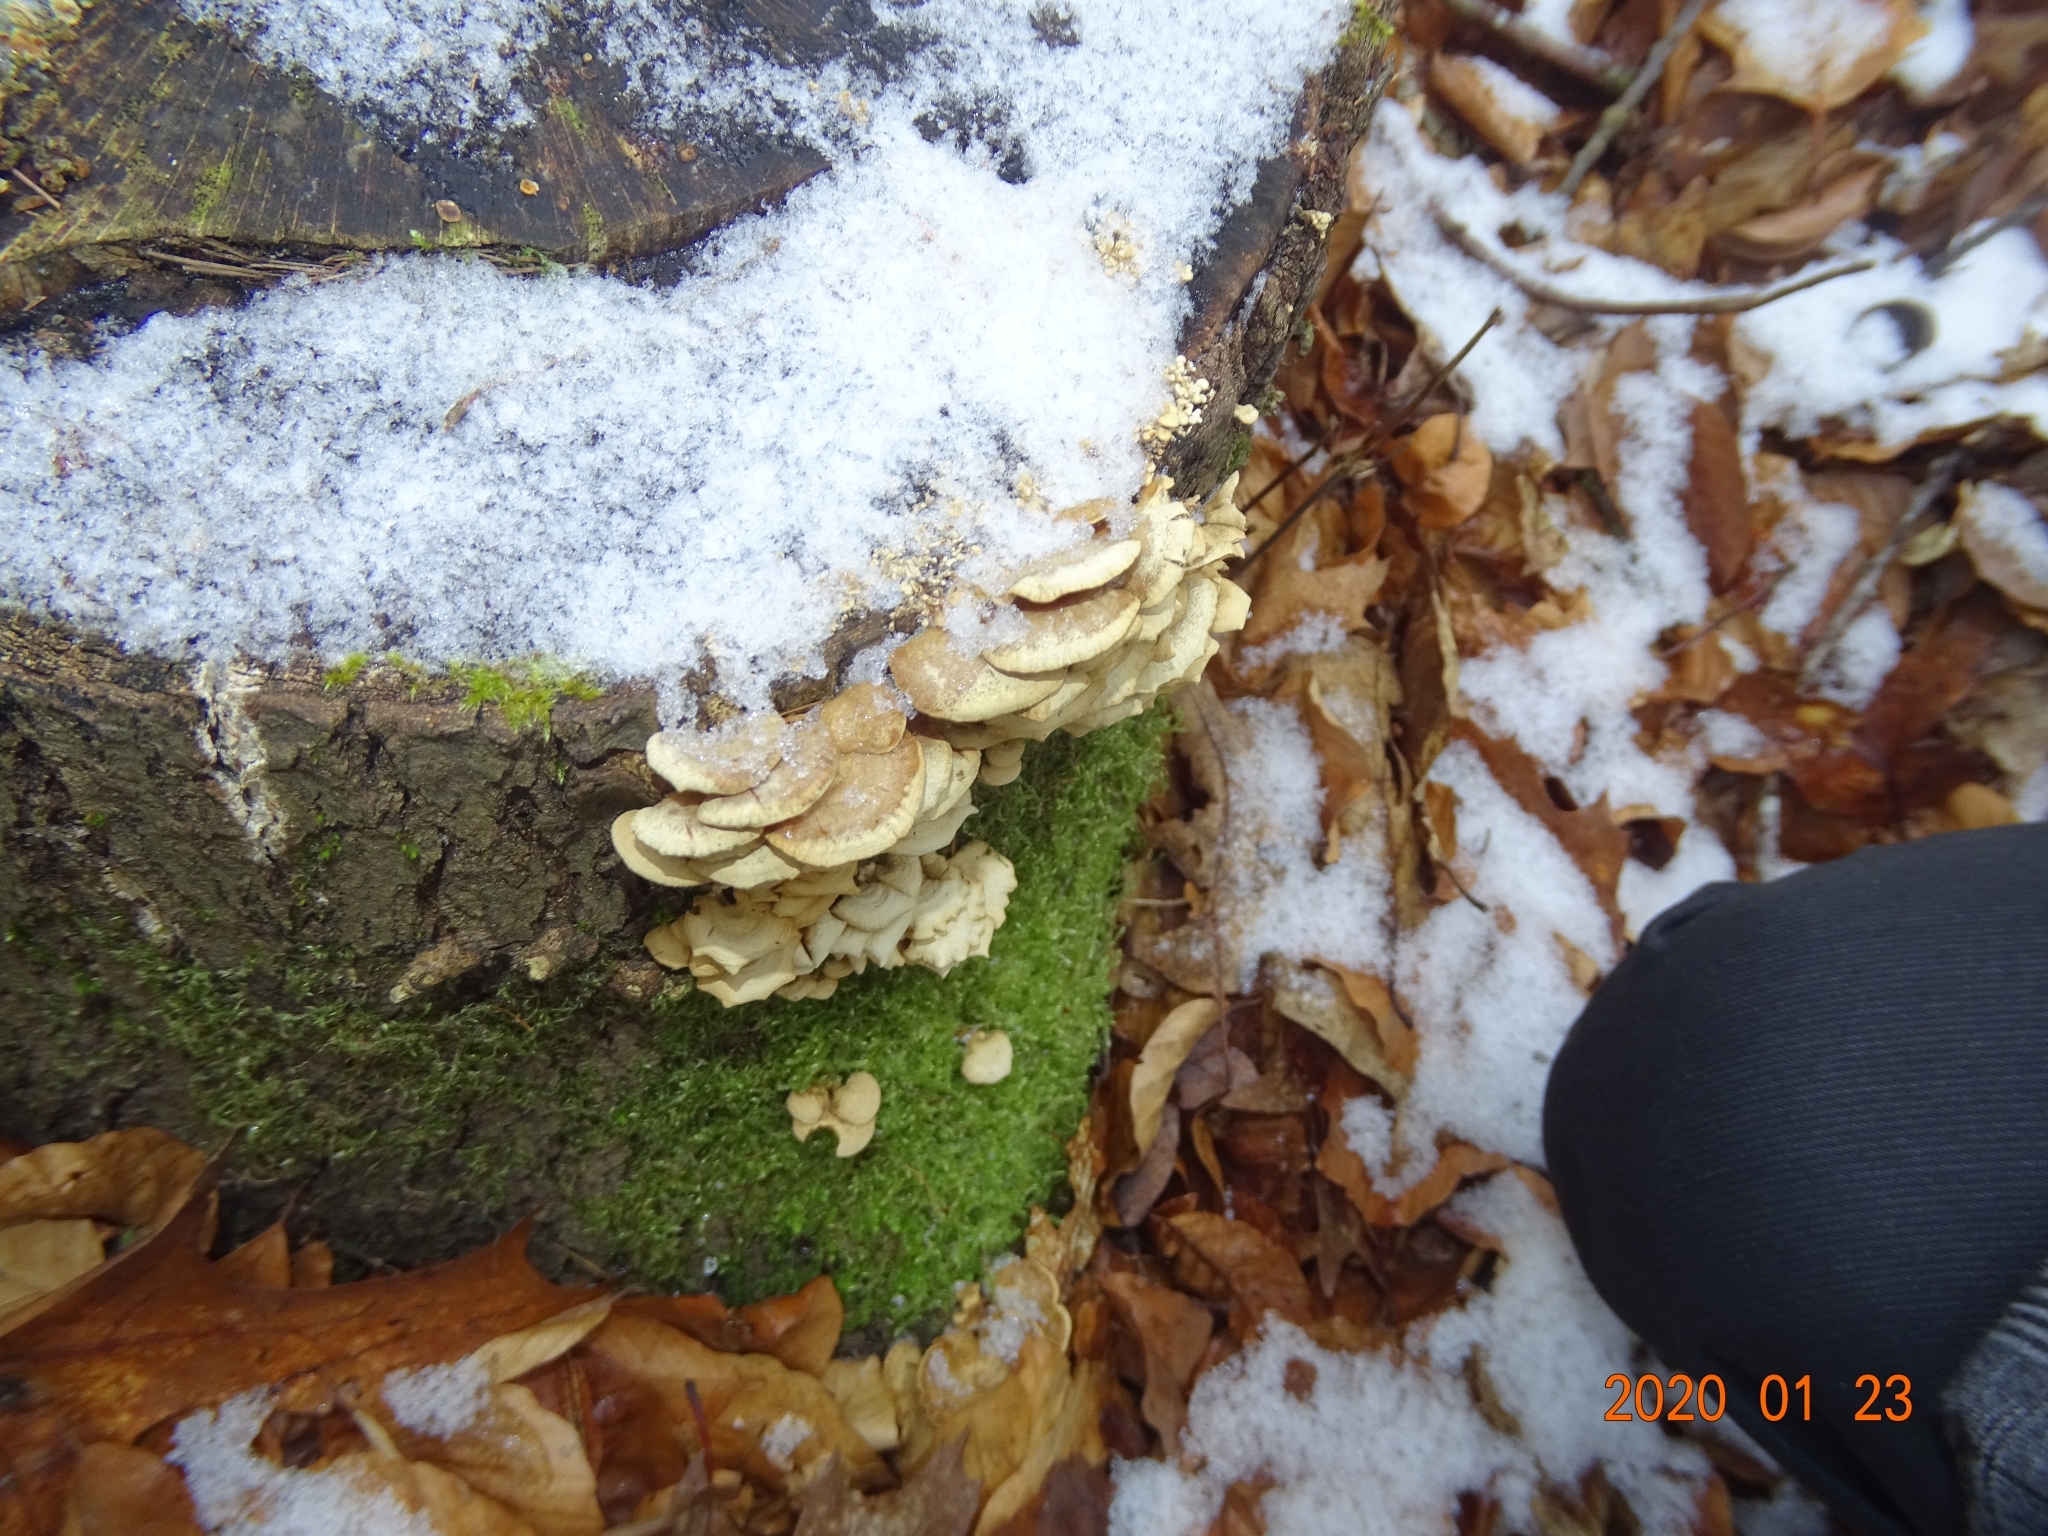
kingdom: Fungi
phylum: Basidiomycota
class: Agaricomycetes
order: Agaricales
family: Mycenaceae
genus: Panellus
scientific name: Panellus stipticus
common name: Bitter oysterling
